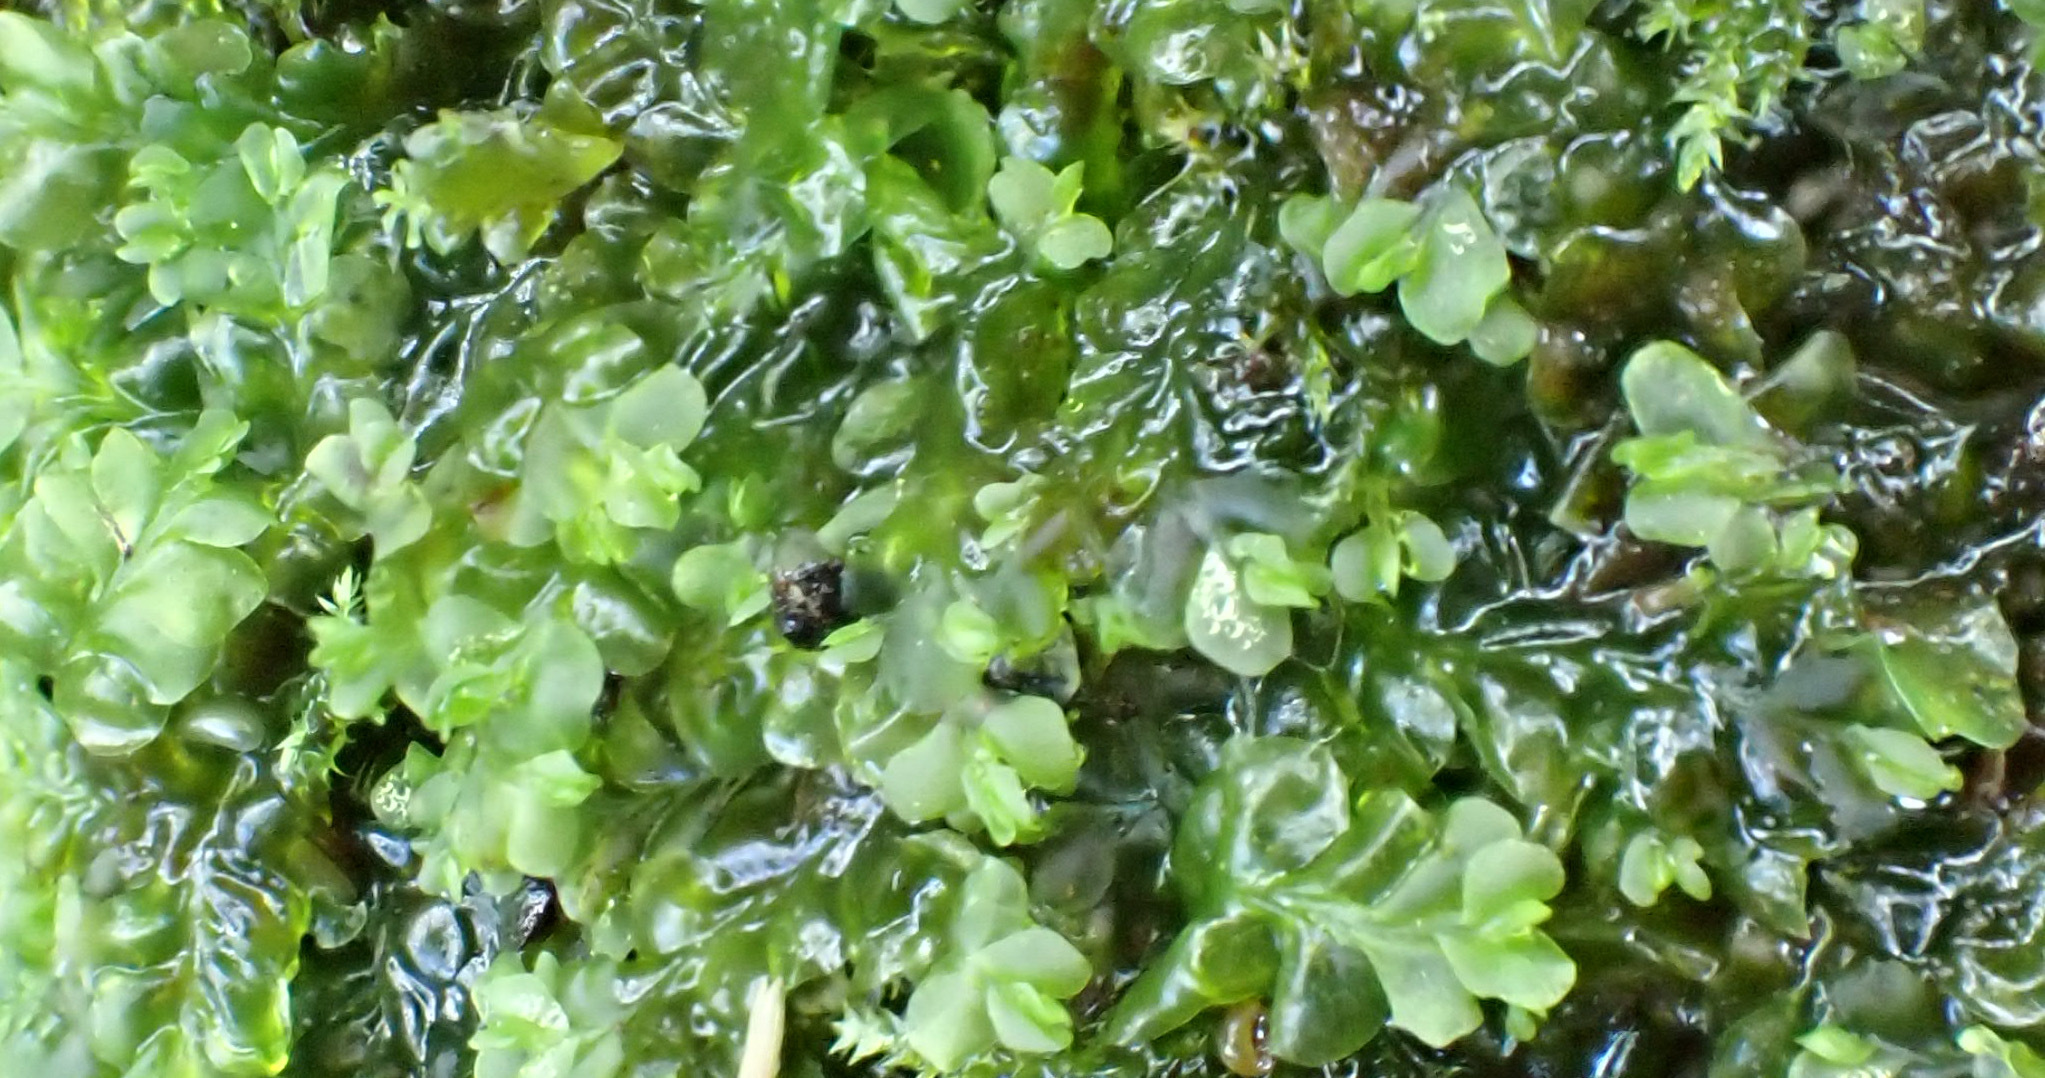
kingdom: Plantae
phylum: Marchantiophyta
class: Jungermanniopsida
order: Jungermanniales
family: Lophocoleaceae
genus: Chiloscyphus
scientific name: Chiloscyphus polyanthos
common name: Square-leaved crestwort
